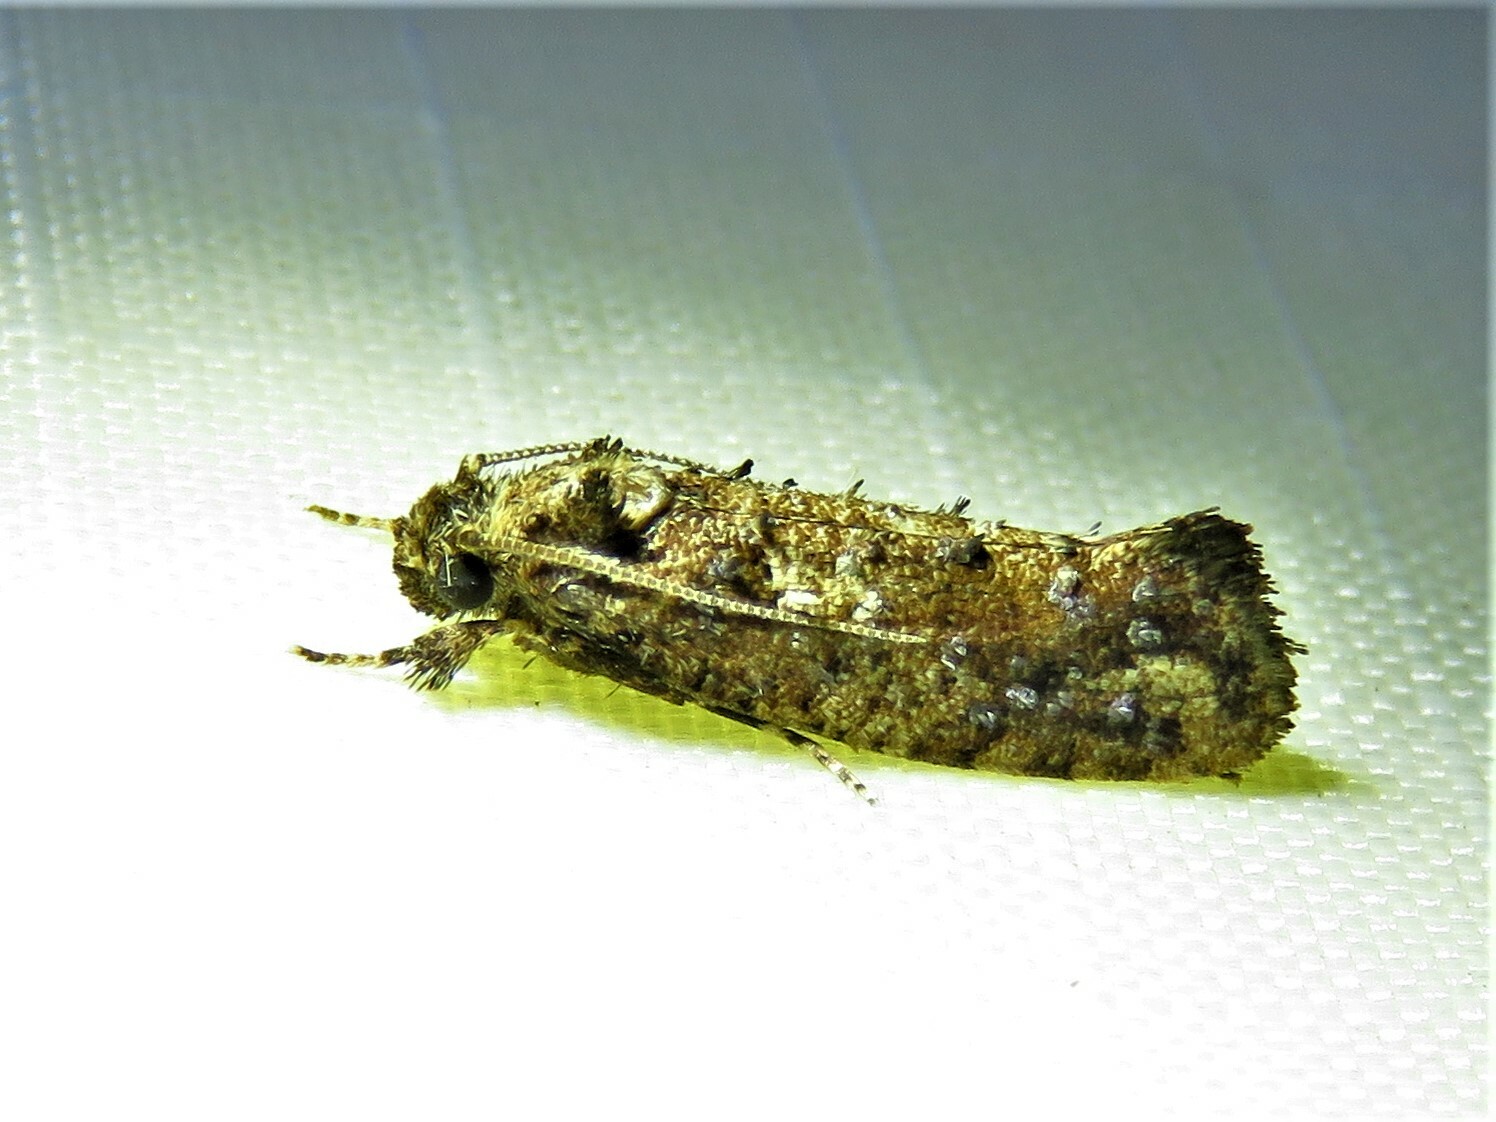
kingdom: Animalia
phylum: Arthropoda
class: Insecta
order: Lepidoptera
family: Tineidae
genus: Acrolophus
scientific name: Acrolophus cressoni
